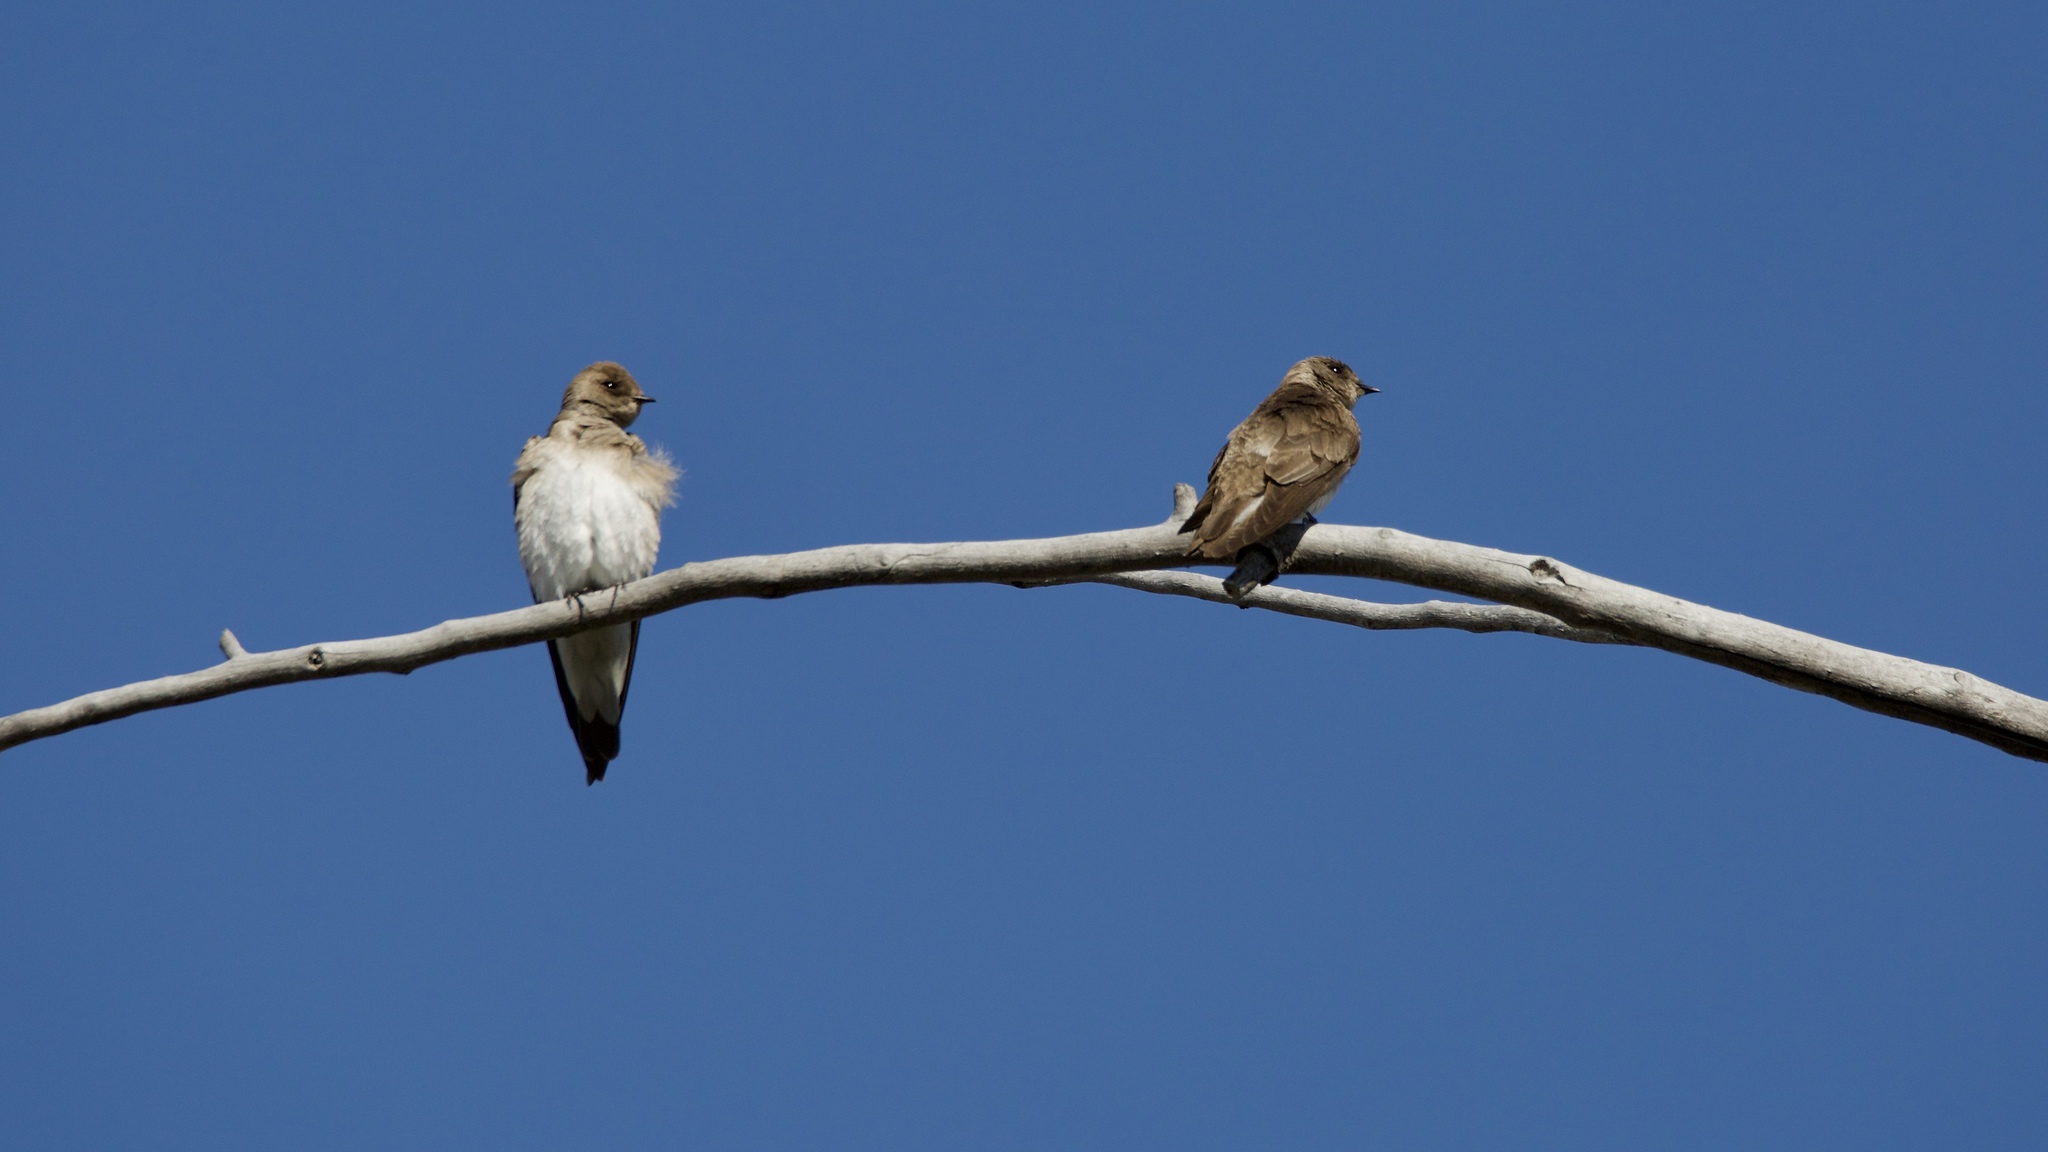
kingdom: Animalia
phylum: Chordata
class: Aves
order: Passeriformes
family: Hirundinidae
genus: Stelgidopteryx
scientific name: Stelgidopteryx serripennis
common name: Northern rough-winged swallow
